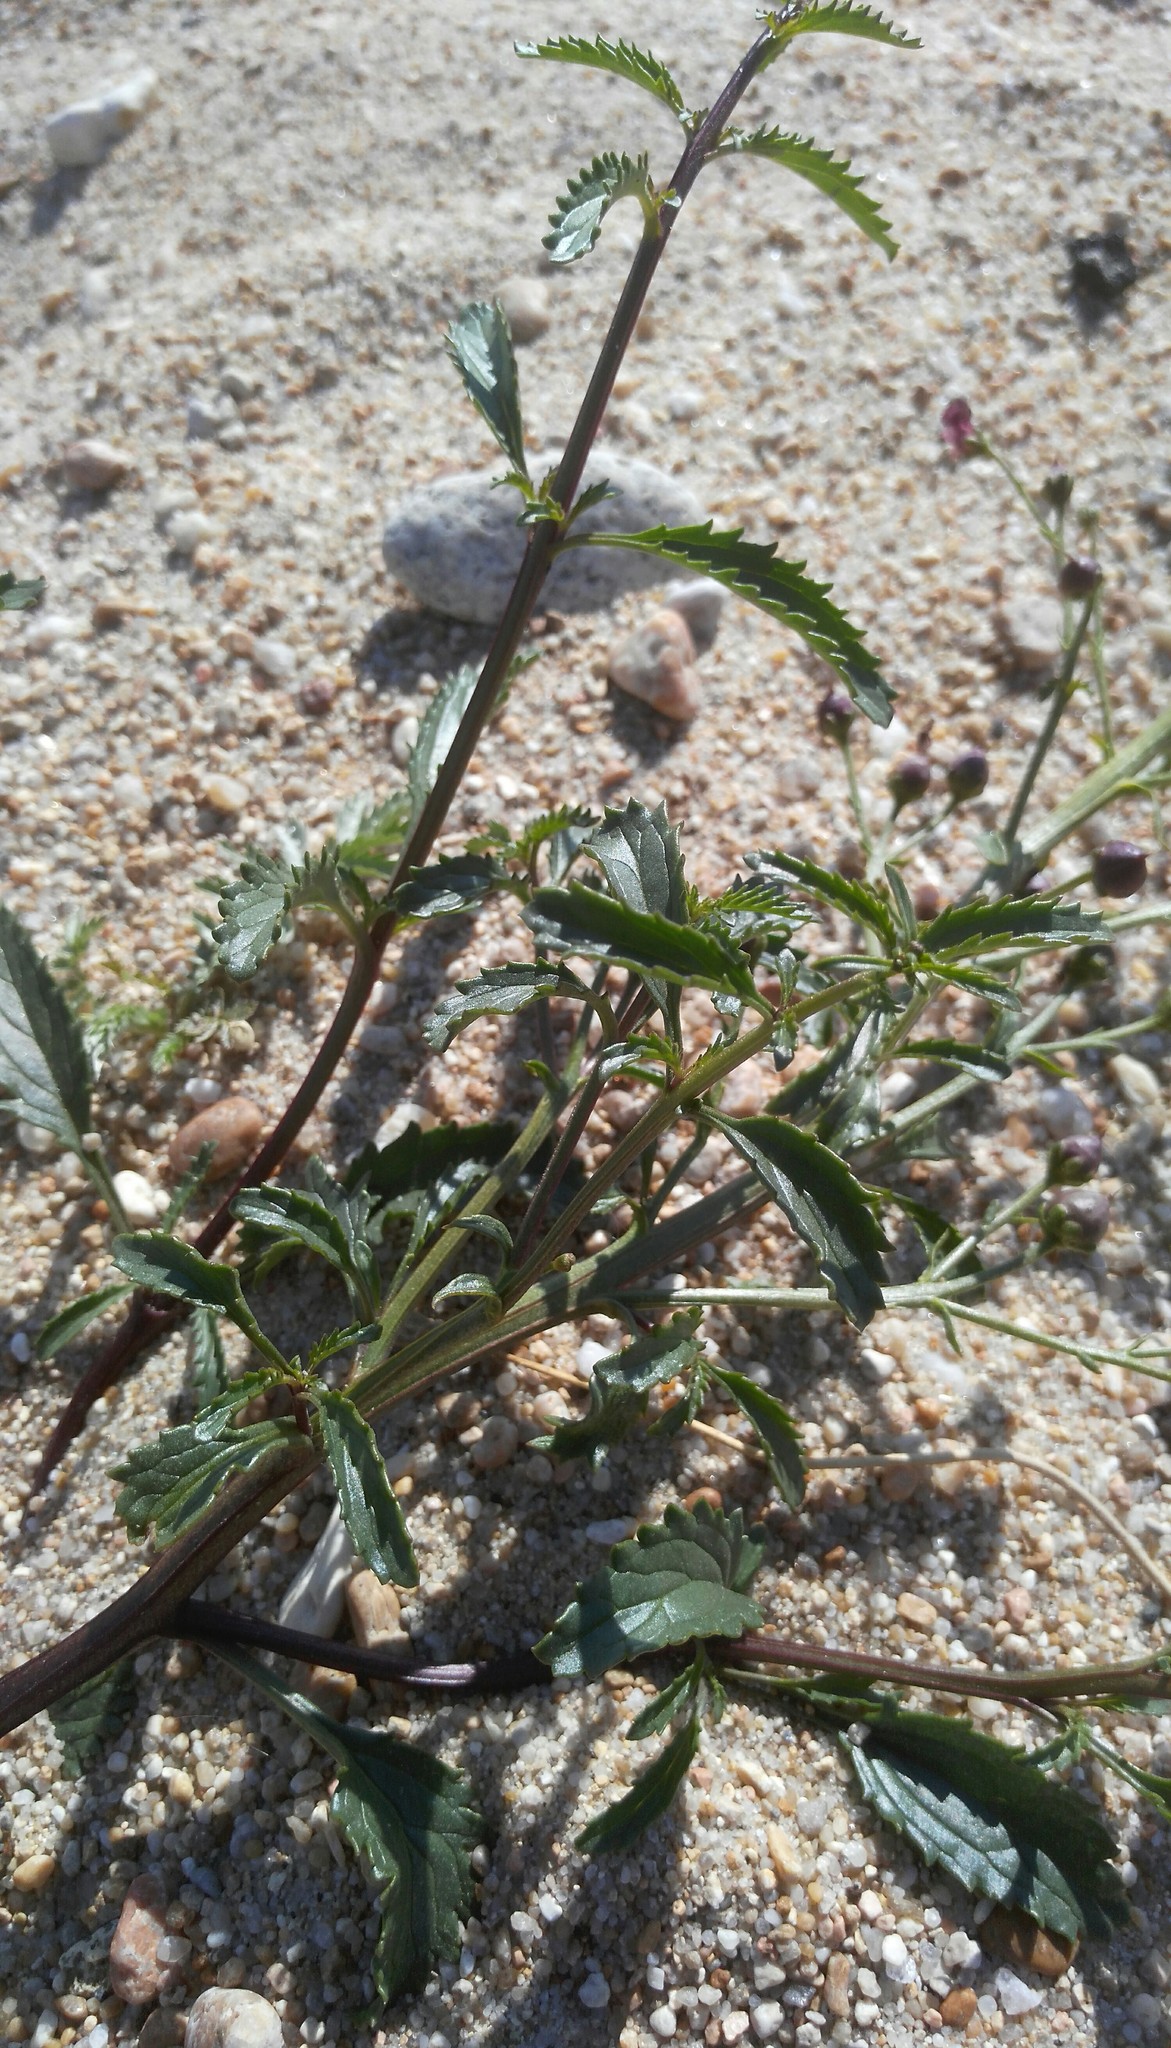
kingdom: Plantae
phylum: Tracheophyta
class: Magnoliopsida
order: Lamiales
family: Scrophulariaceae
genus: Scrophularia
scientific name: Scrophularia incisa
